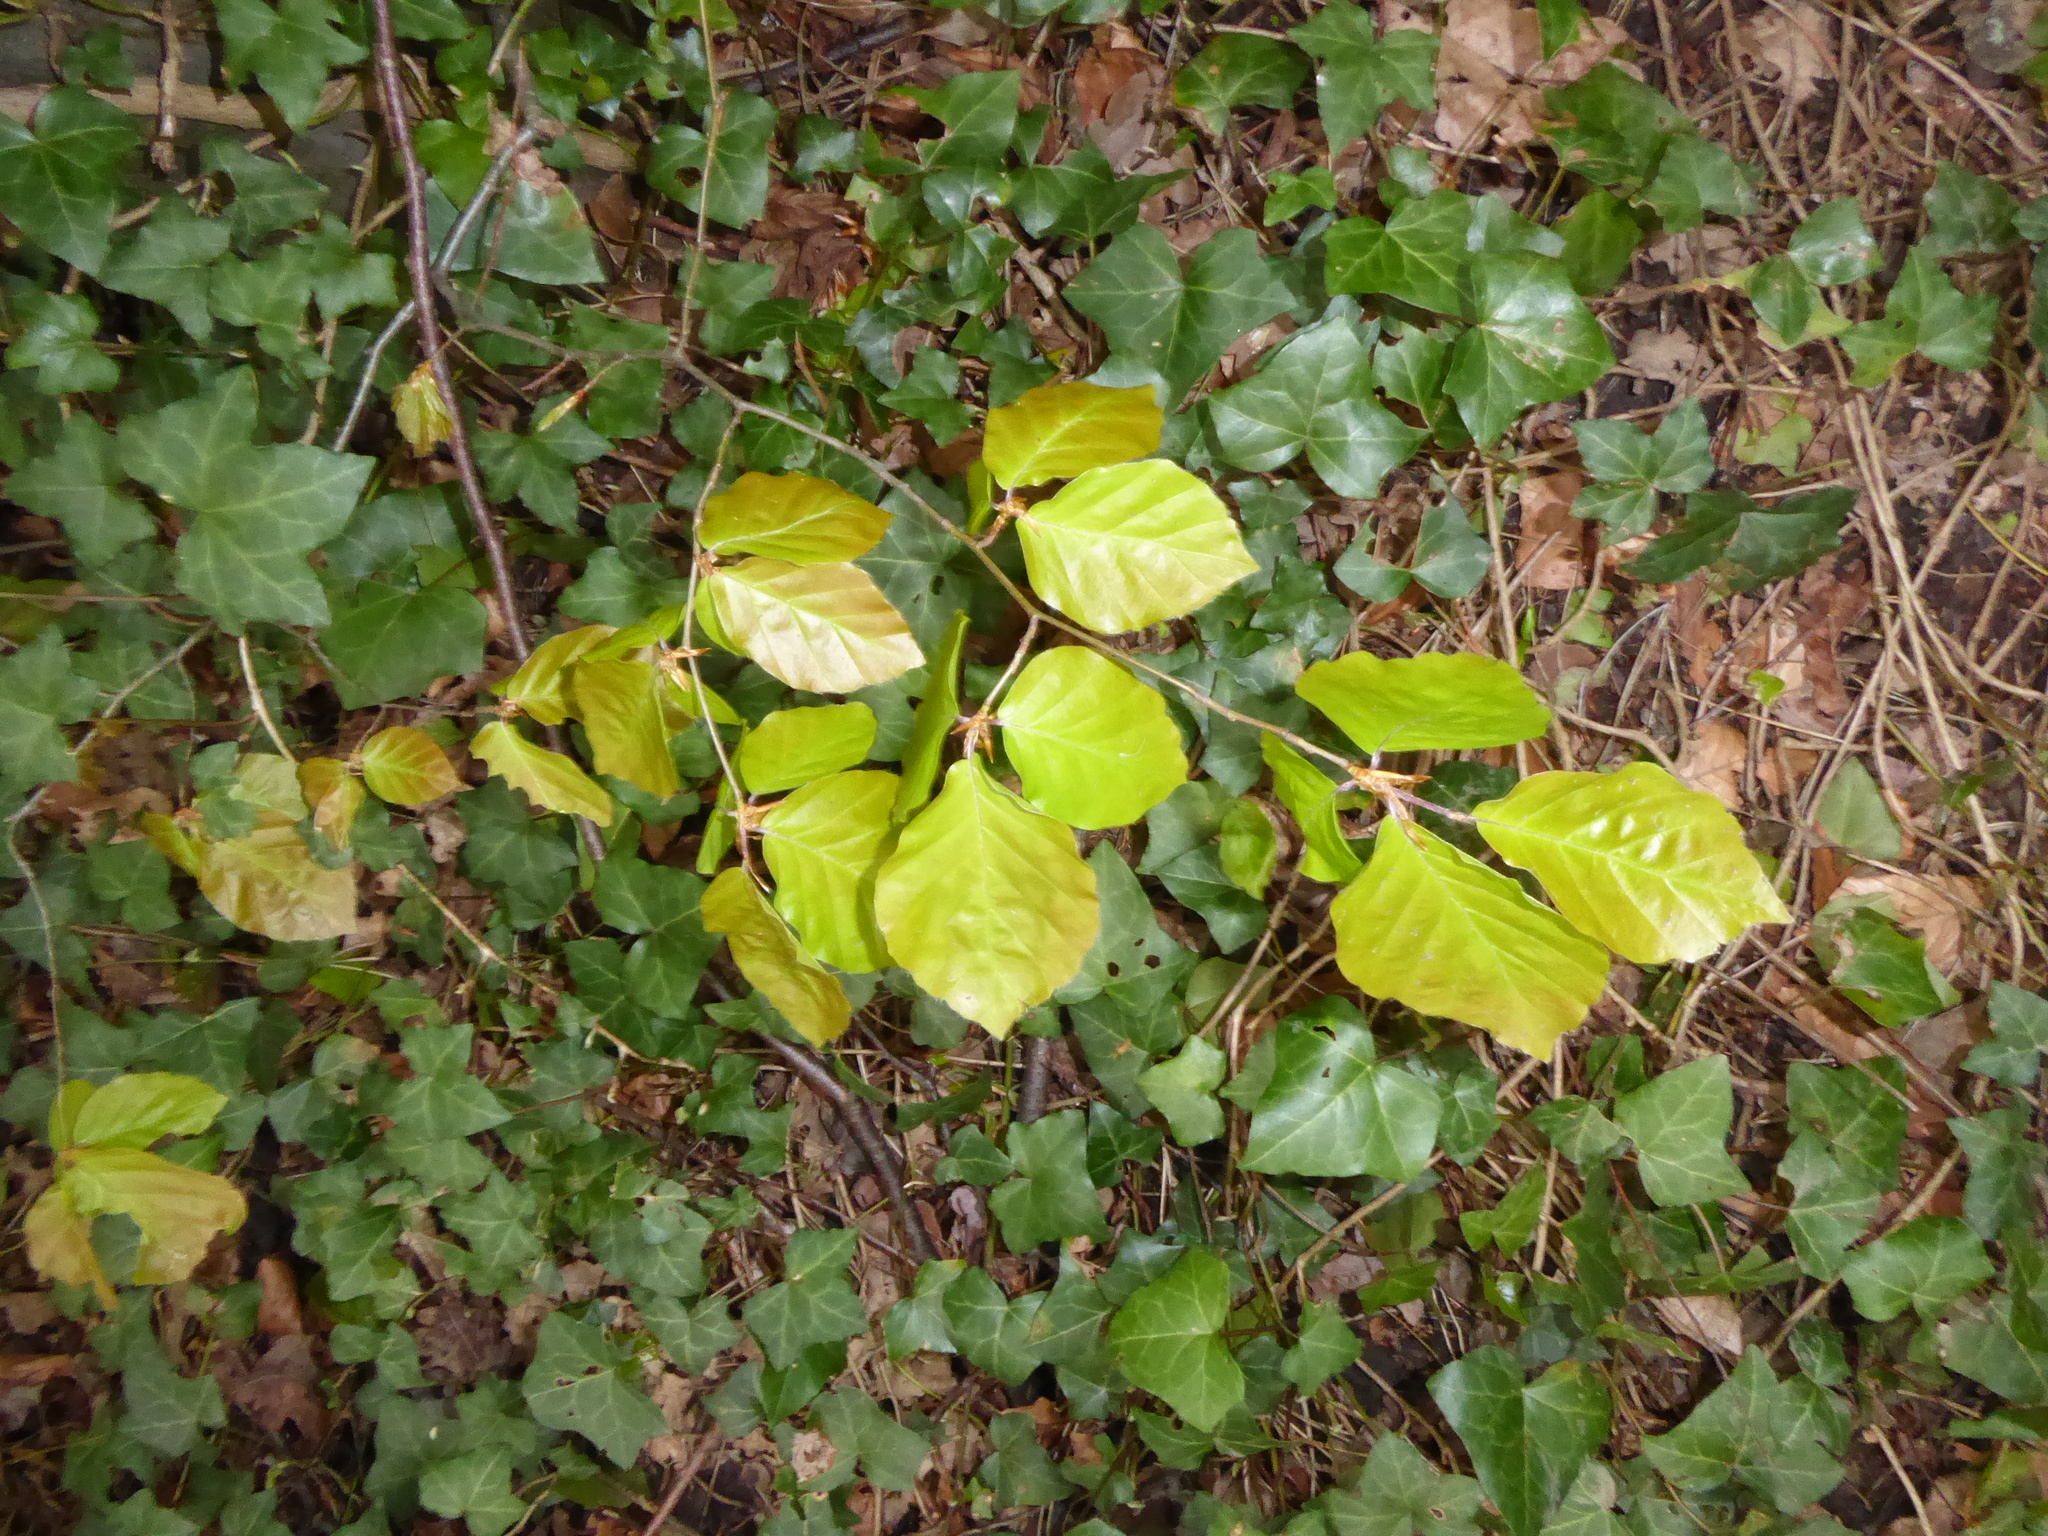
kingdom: Plantae
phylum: Tracheophyta
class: Magnoliopsida
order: Fagales
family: Fagaceae
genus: Fagus
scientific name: Fagus sylvatica
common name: Beech
